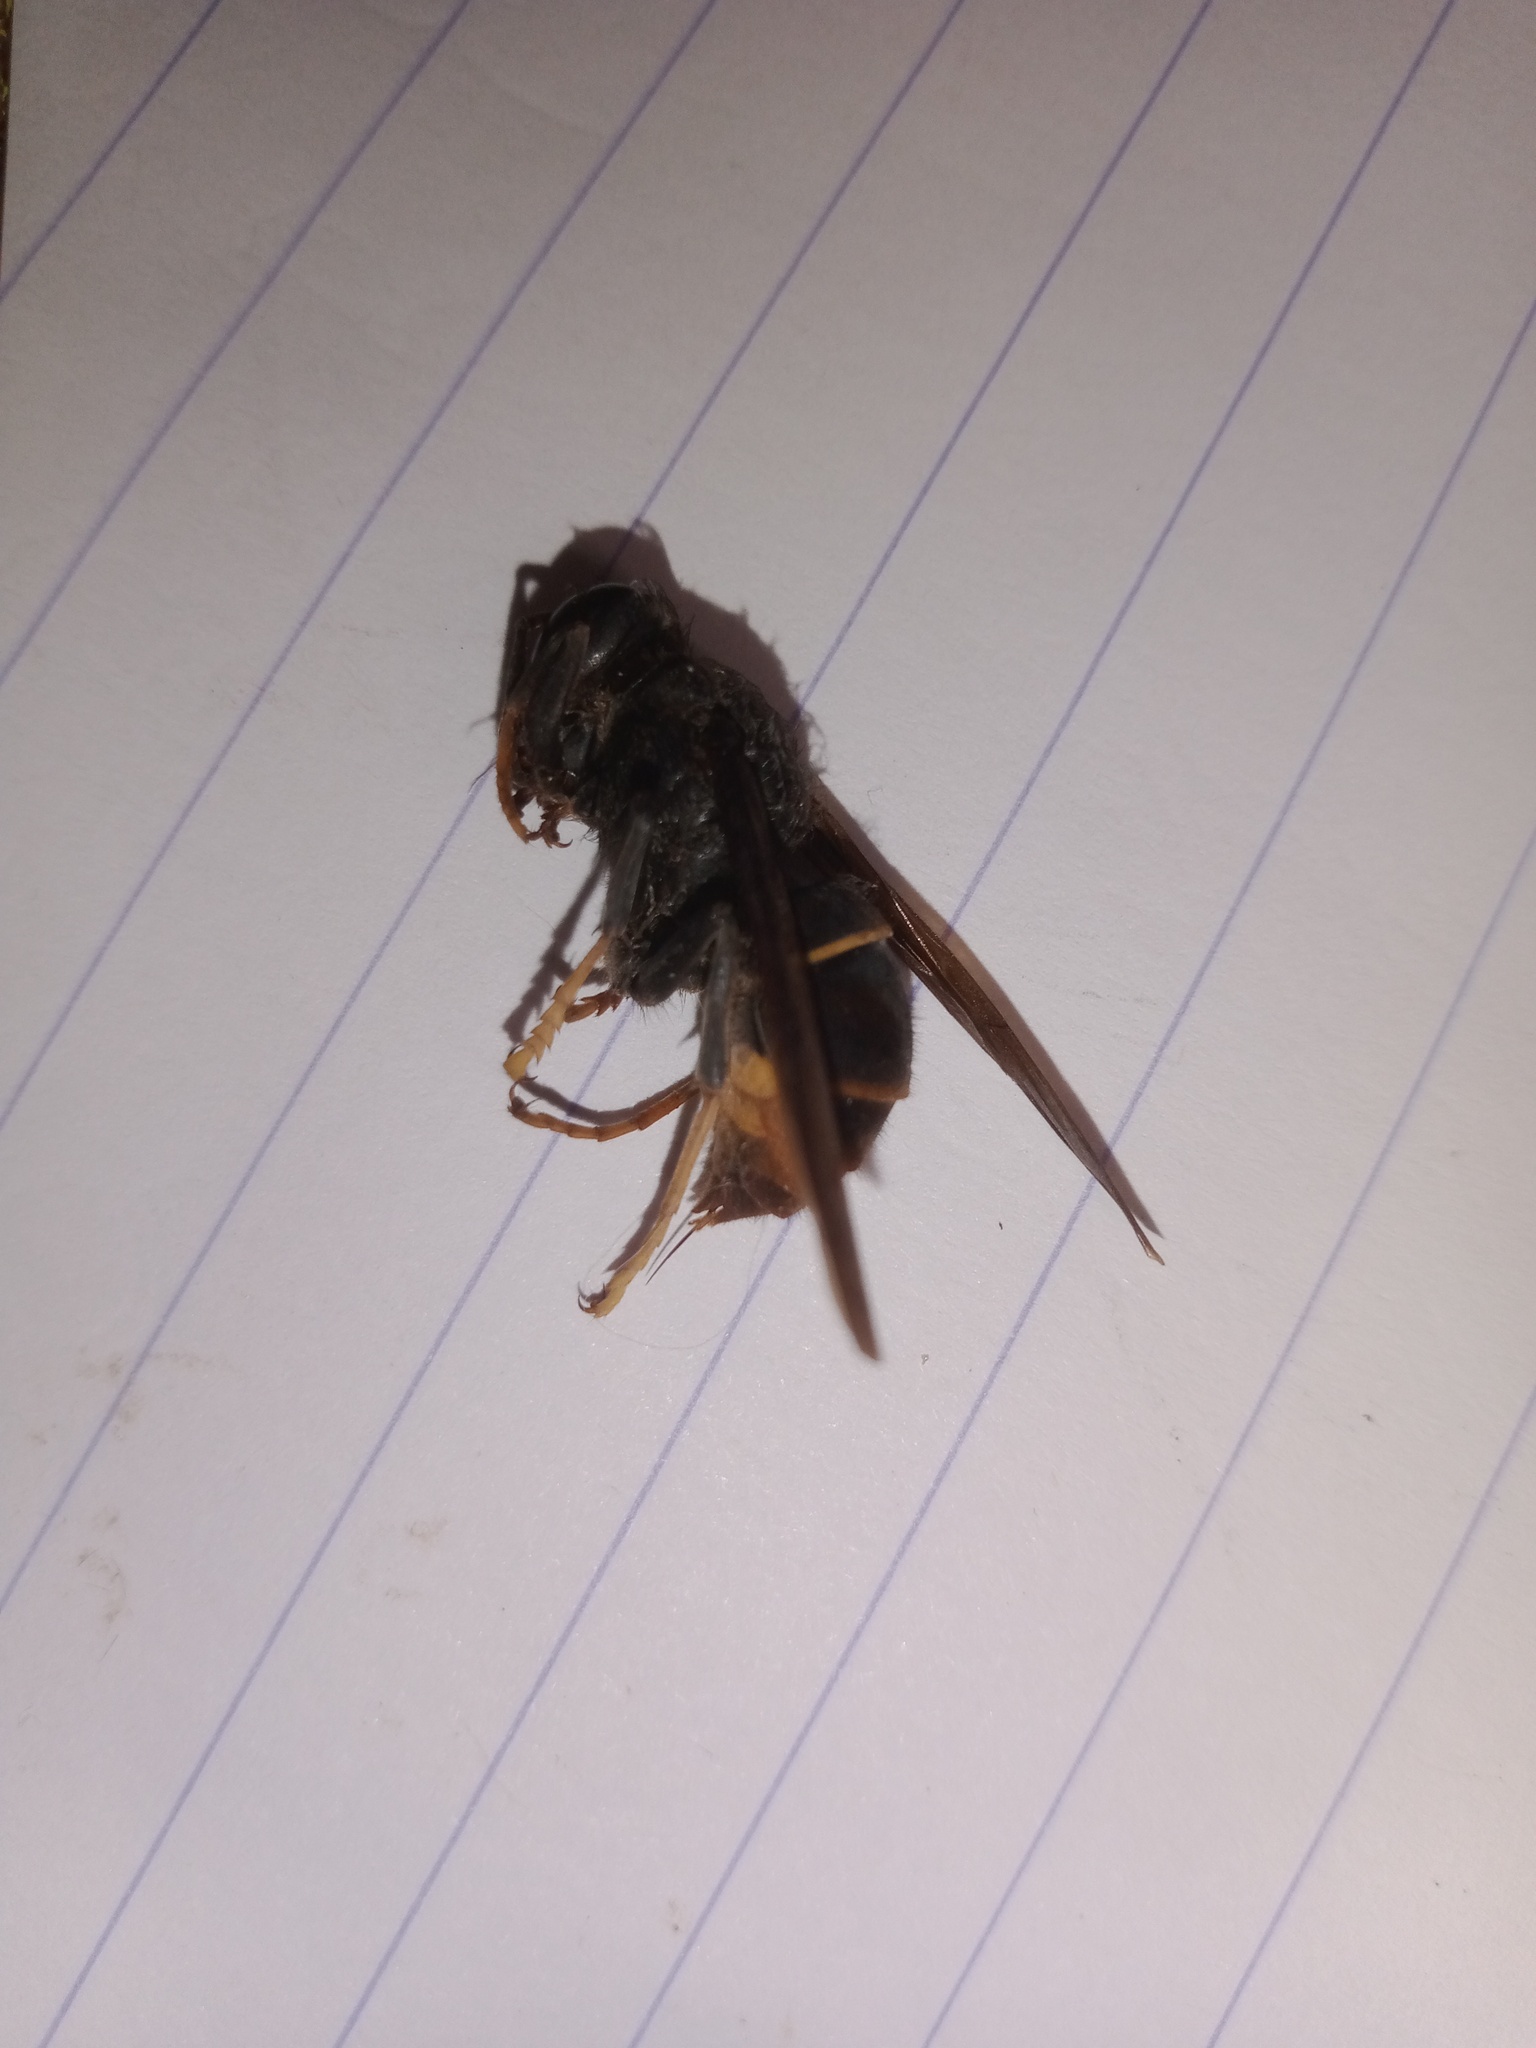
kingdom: Animalia
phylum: Arthropoda
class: Insecta
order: Hymenoptera
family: Vespidae
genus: Vespa
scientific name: Vespa velutina
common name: Asian hornet
